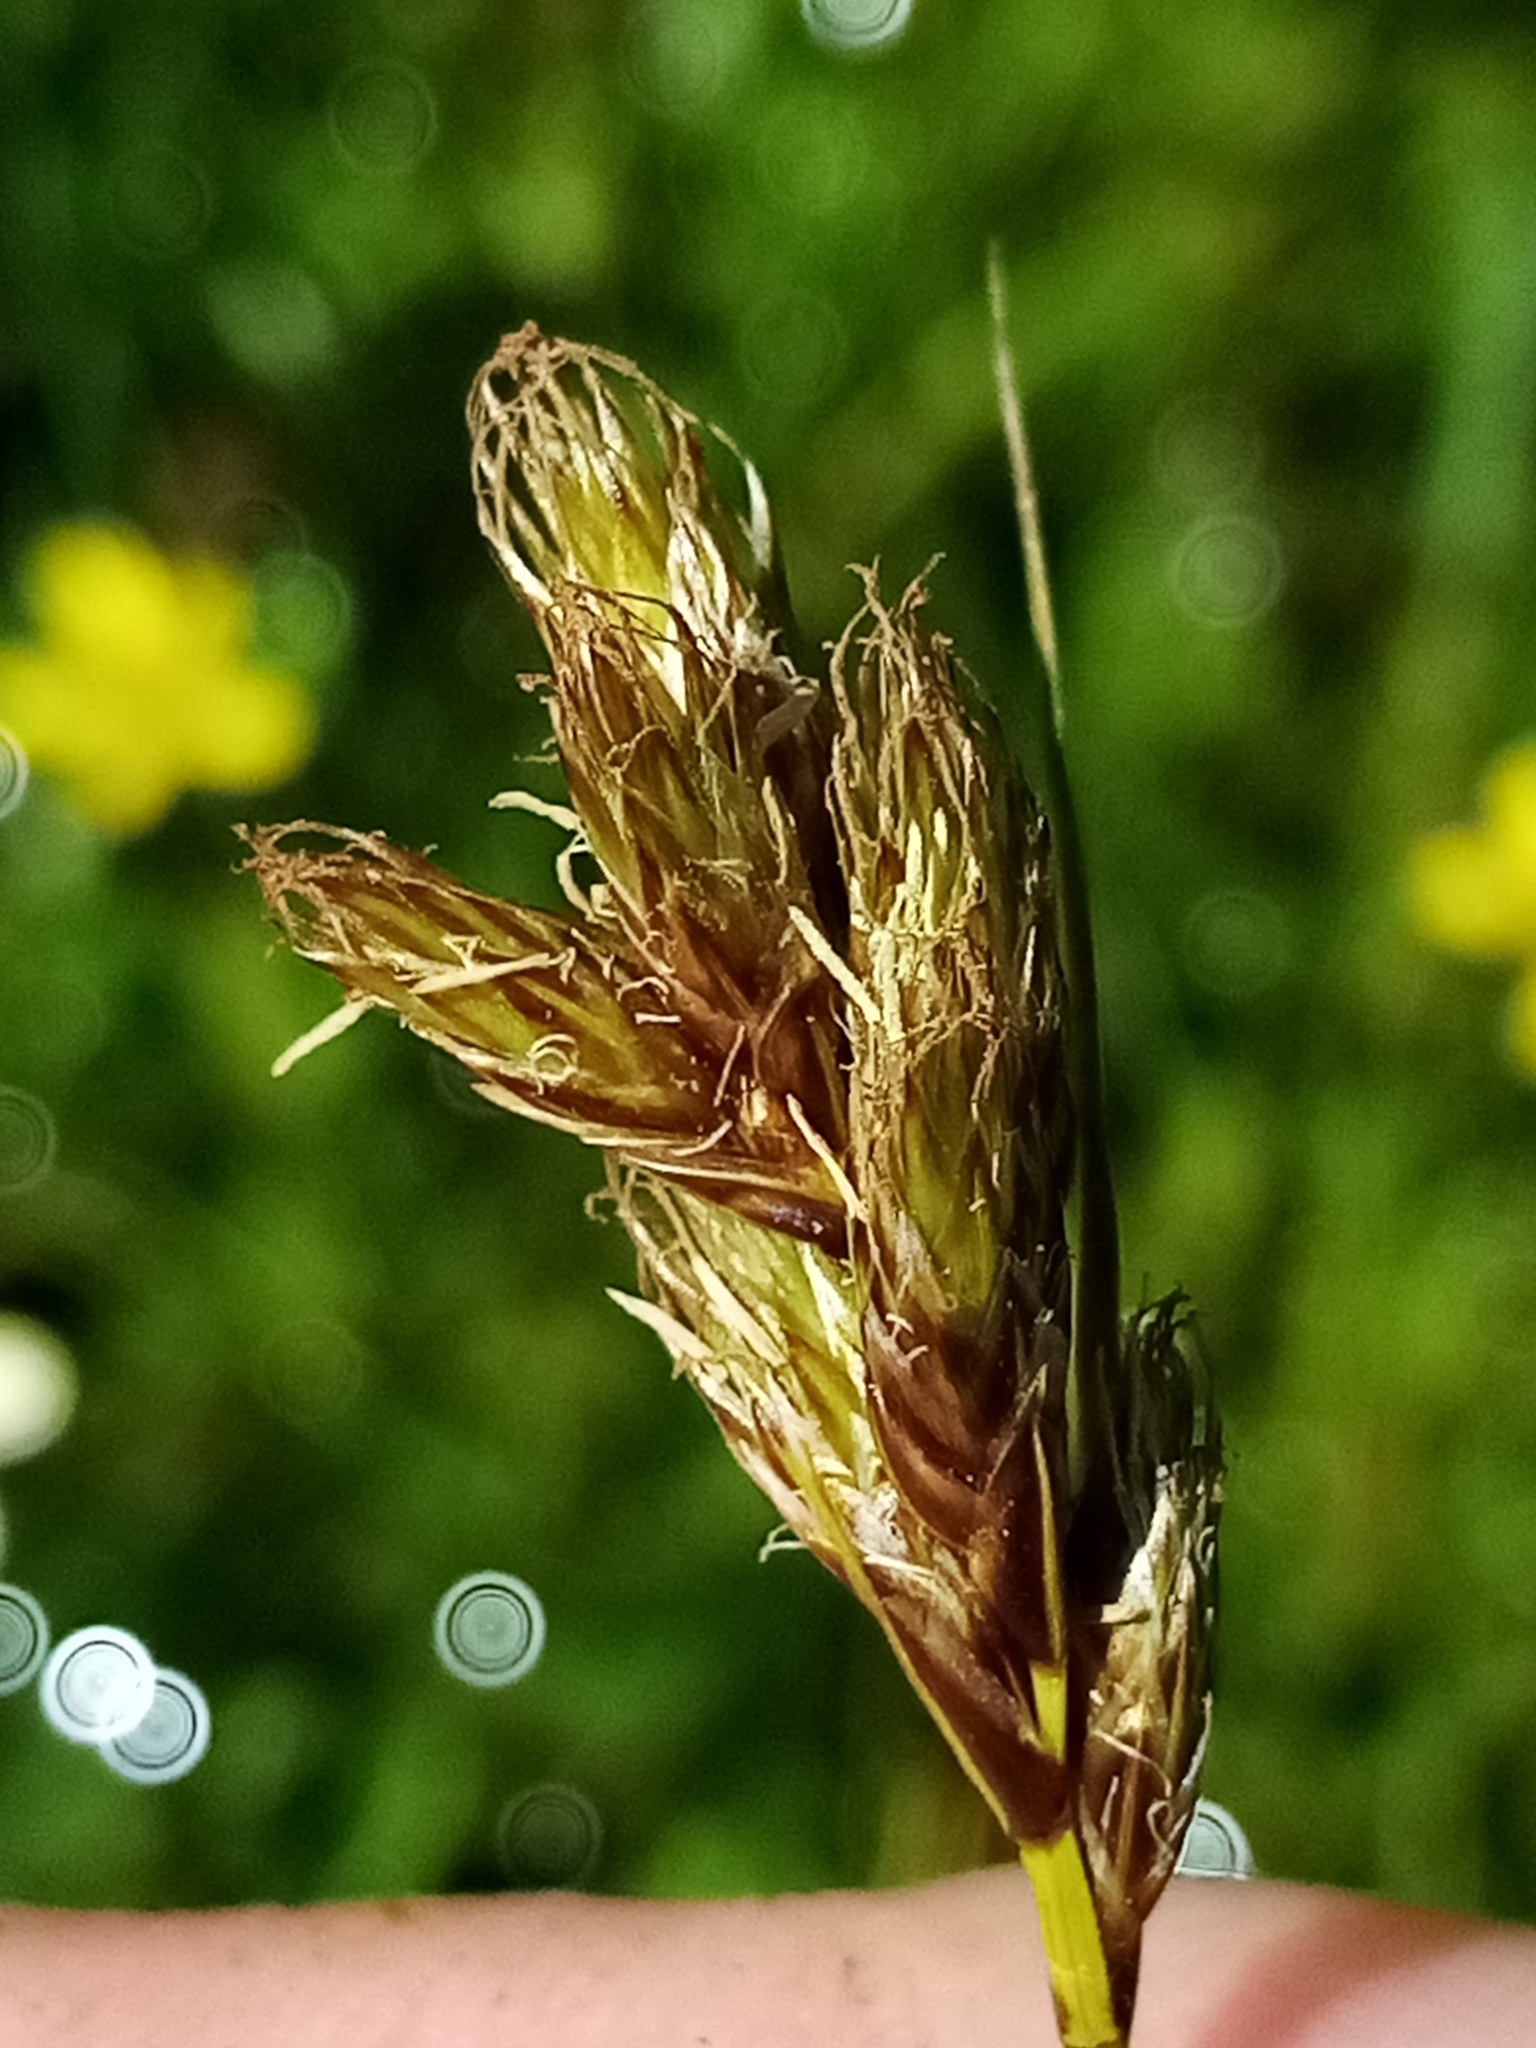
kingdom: Plantae
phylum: Tracheophyta
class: Liliopsida
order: Poales
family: Cyperaceae
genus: Carex
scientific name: Carex leporina
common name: Oval sedge
